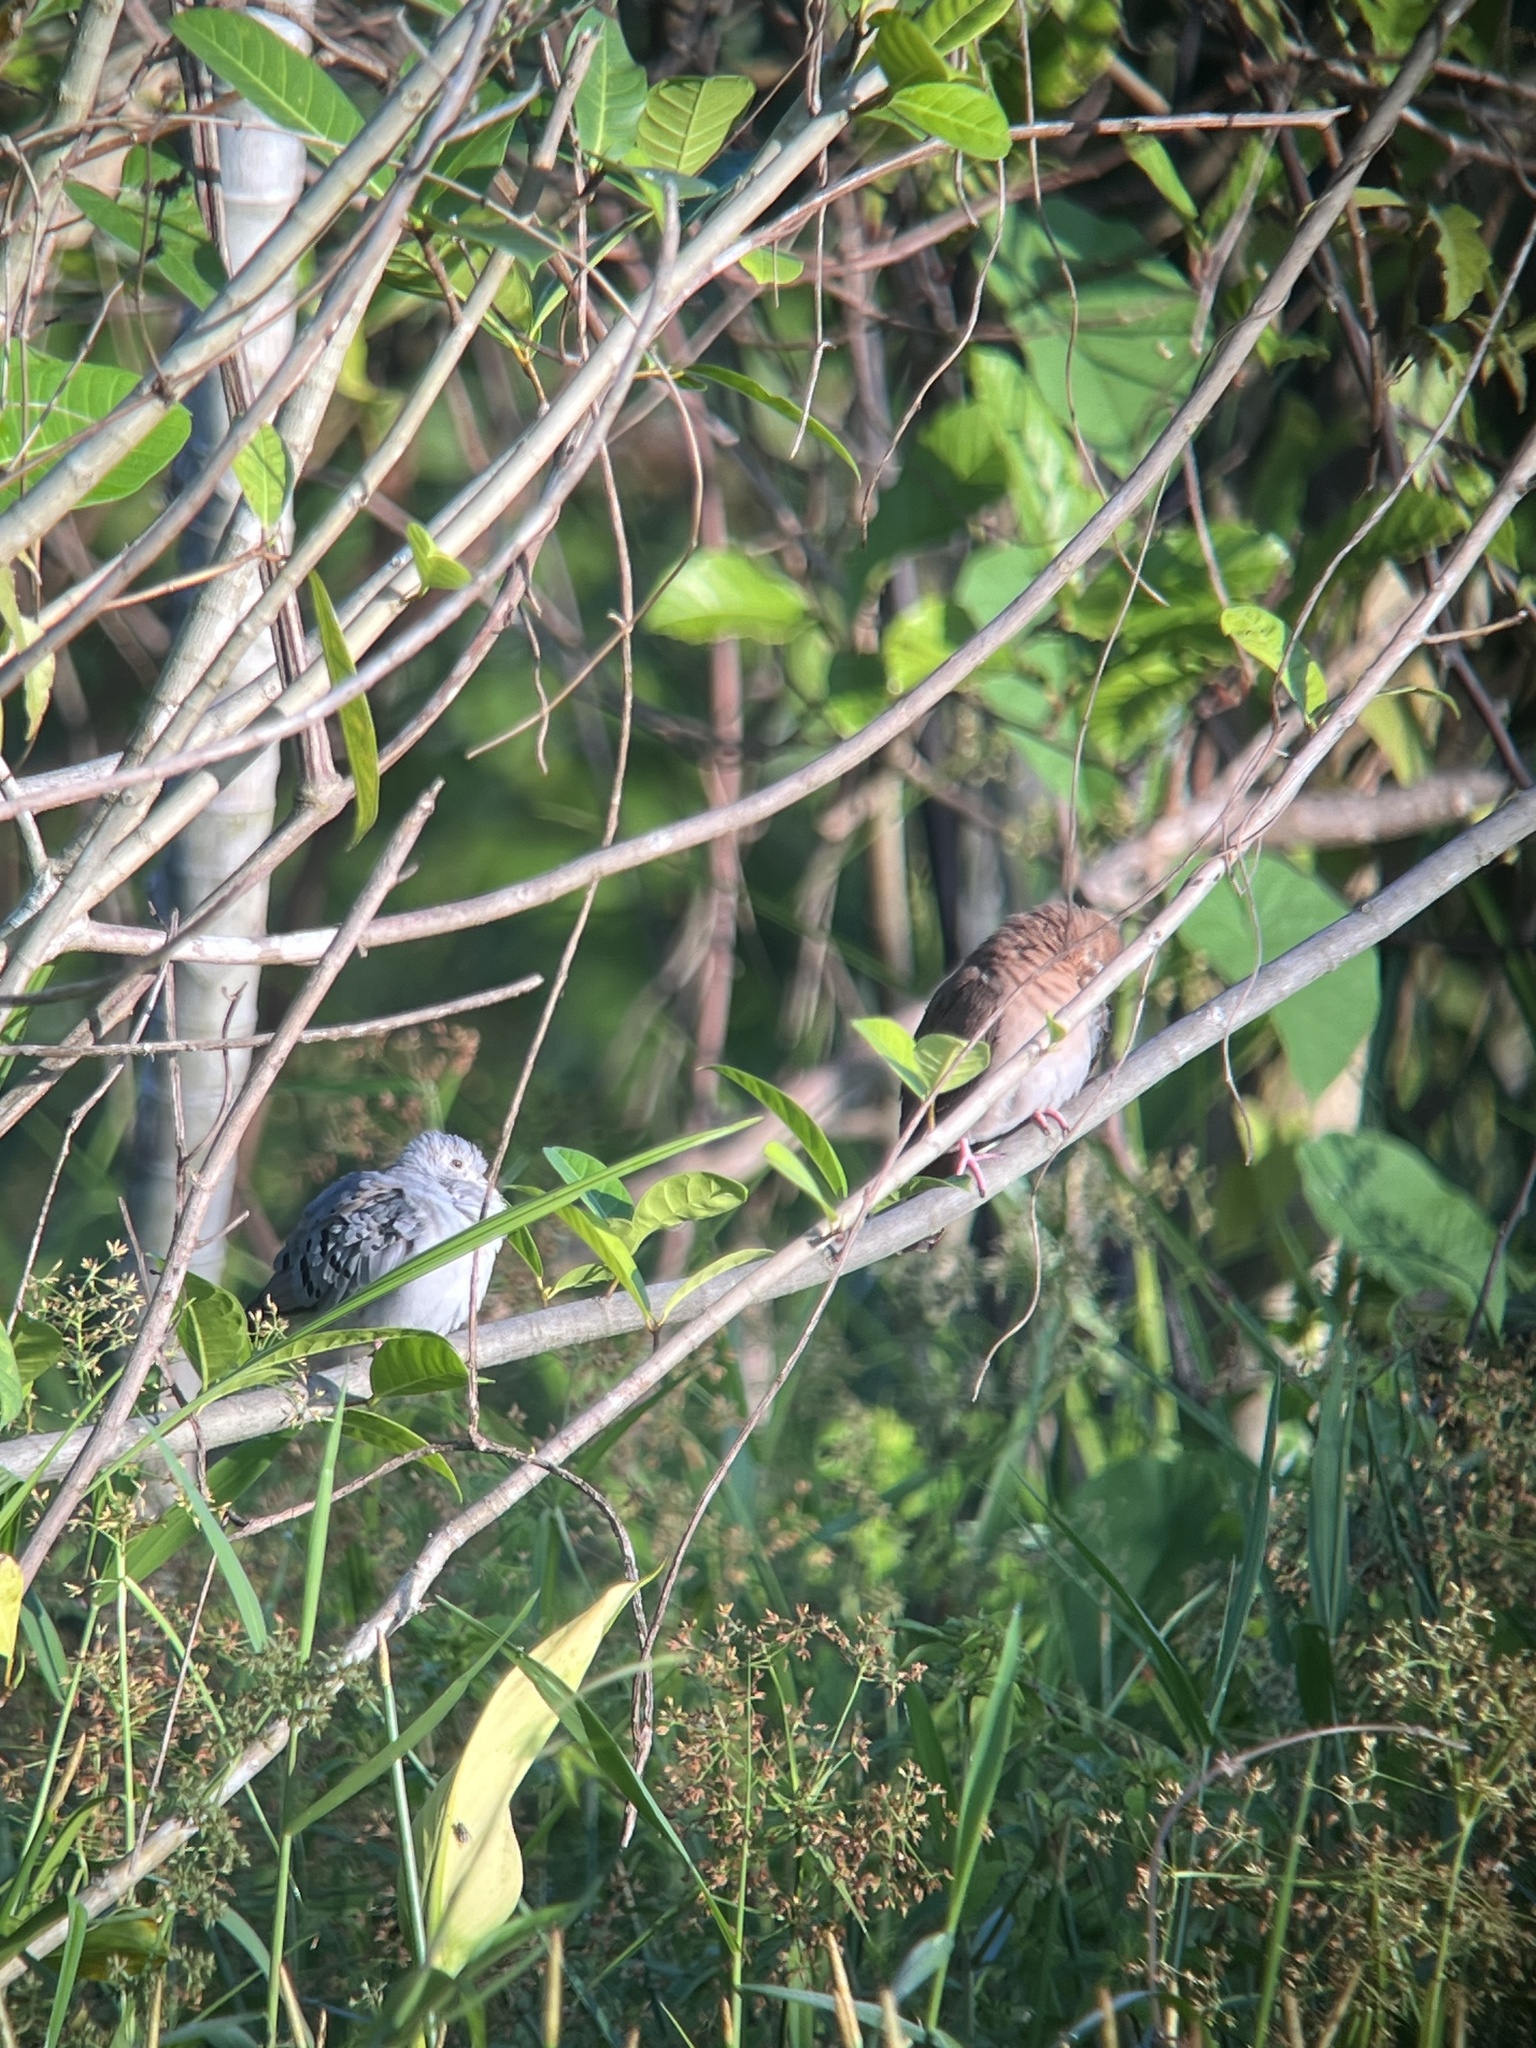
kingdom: Animalia
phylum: Chordata
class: Aves
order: Columbiformes
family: Columbidae
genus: Claravis
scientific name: Claravis pretiosa
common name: Blue ground-dove
